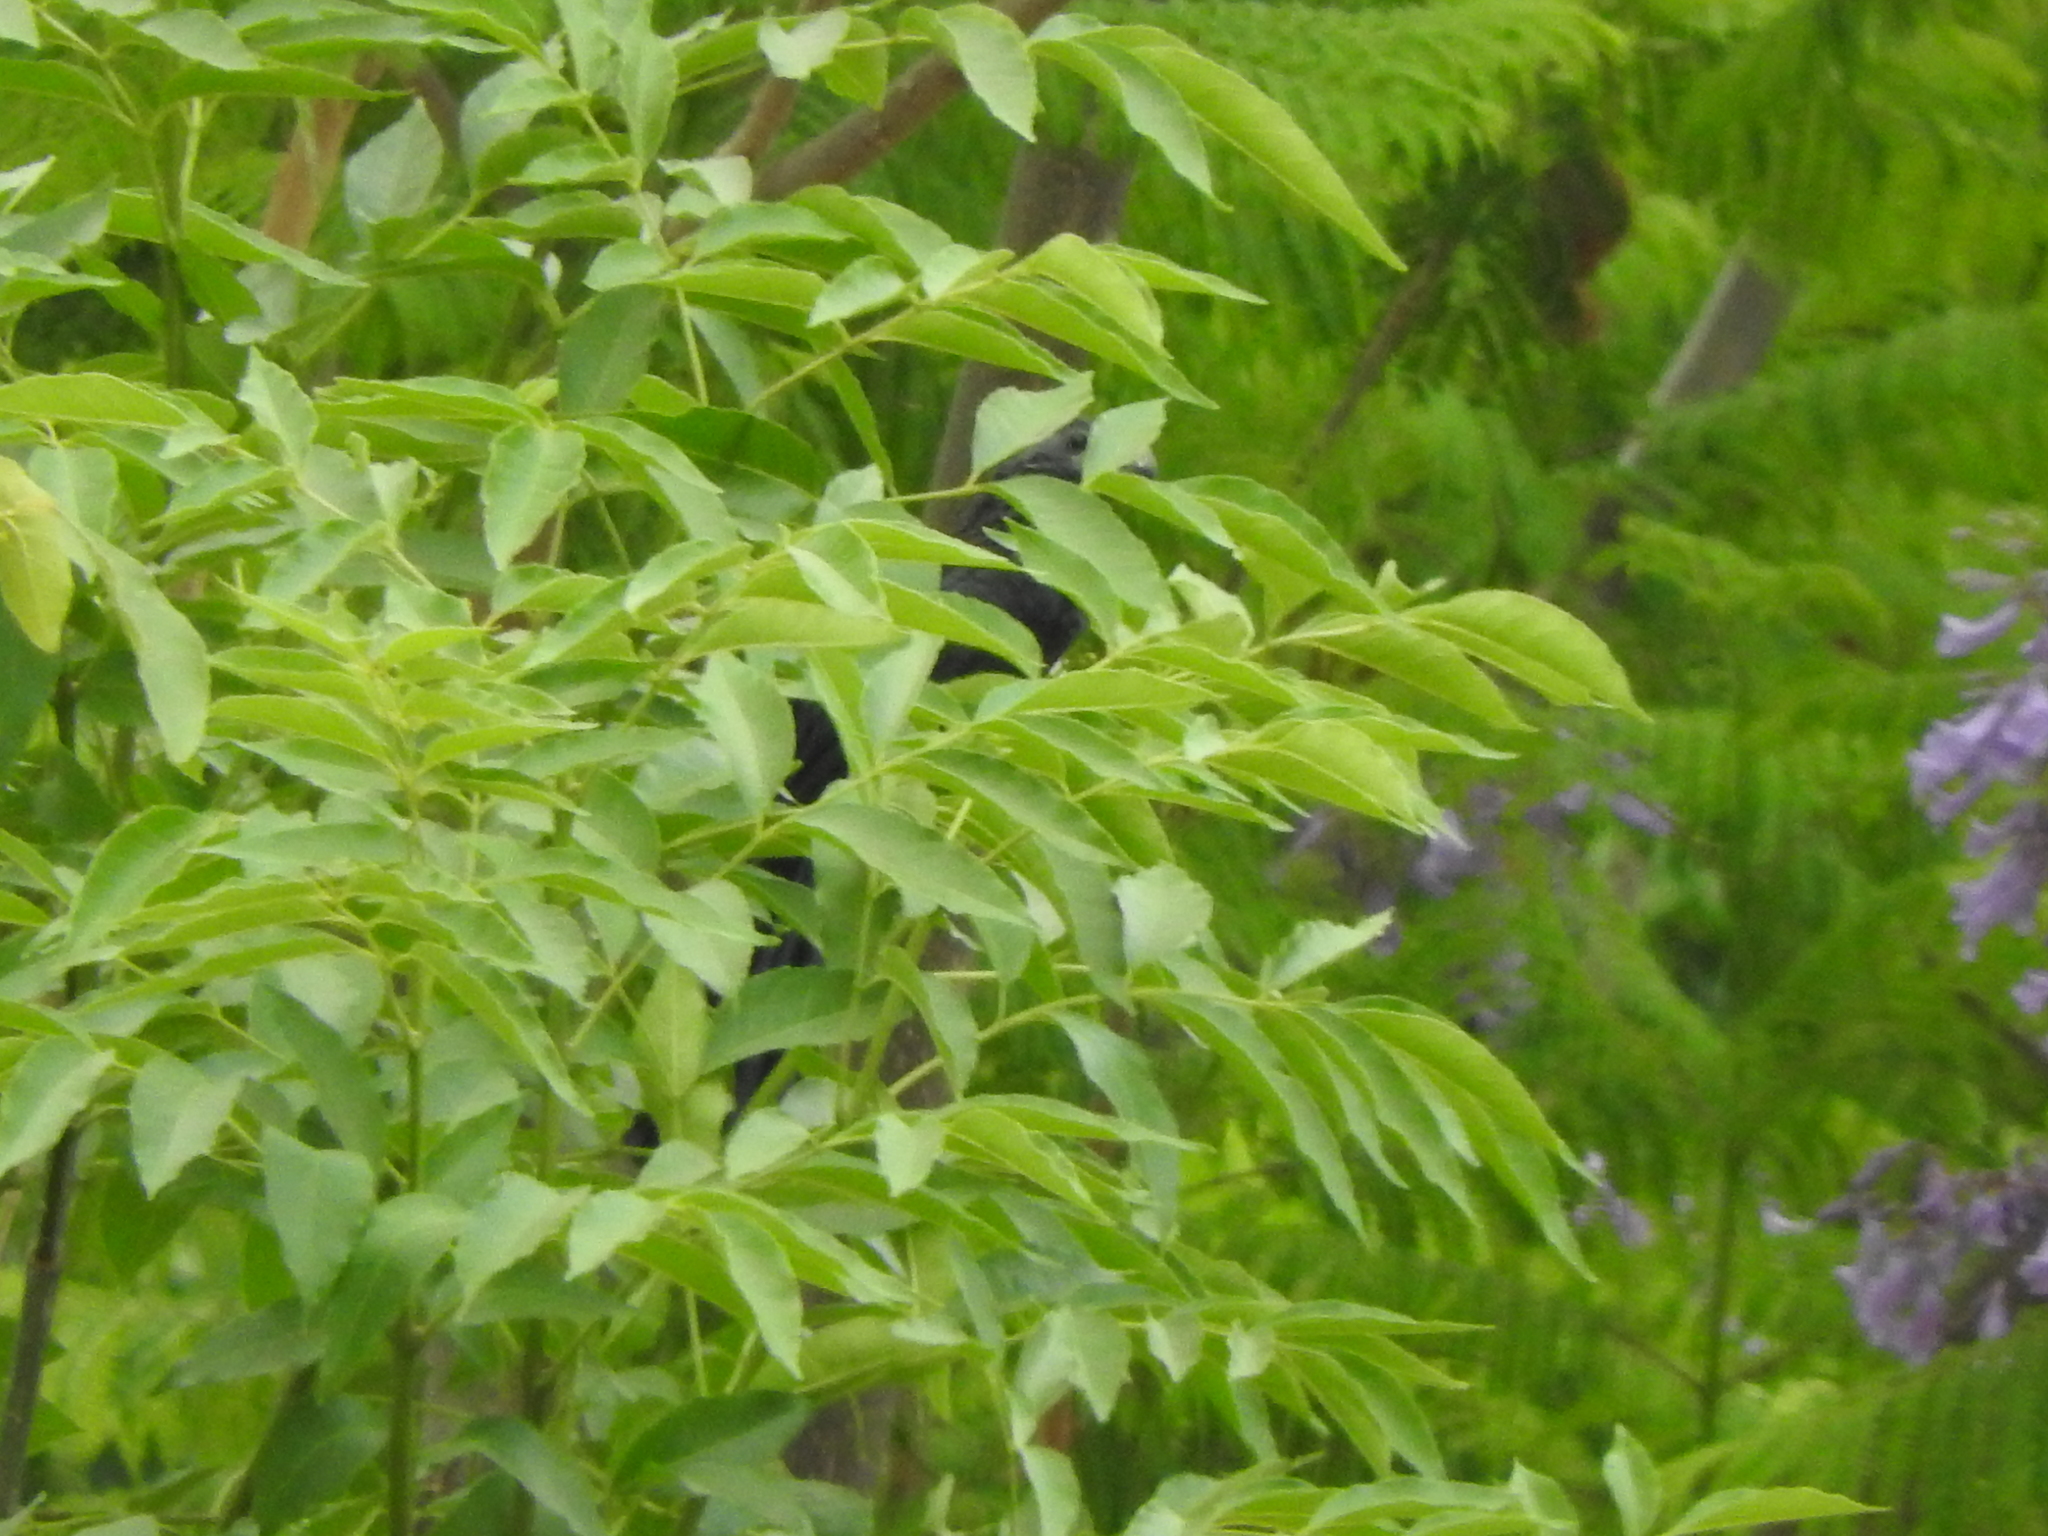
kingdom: Animalia
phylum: Chordata
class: Aves
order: Cuculiformes
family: Cuculidae
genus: Crotophaga
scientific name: Crotophaga sulcirostris
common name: Groove-billed ani
